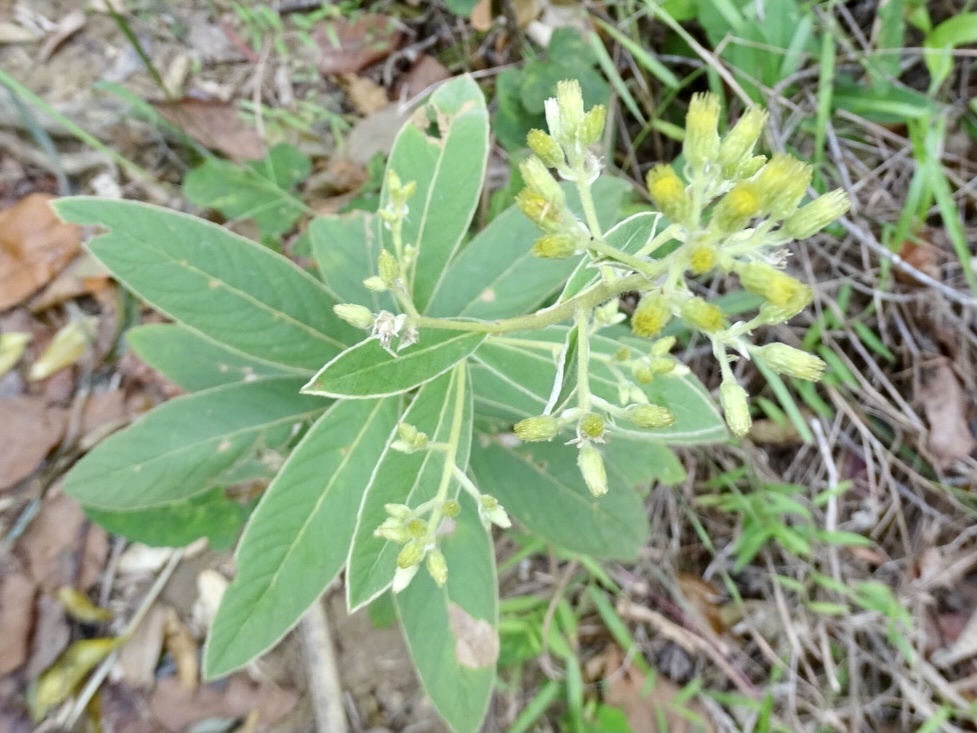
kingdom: Plantae
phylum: Tracheophyta
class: Magnoliopsida
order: Asterales
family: Asteraceae
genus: Duhaldea
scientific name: Duhaldea cappa
